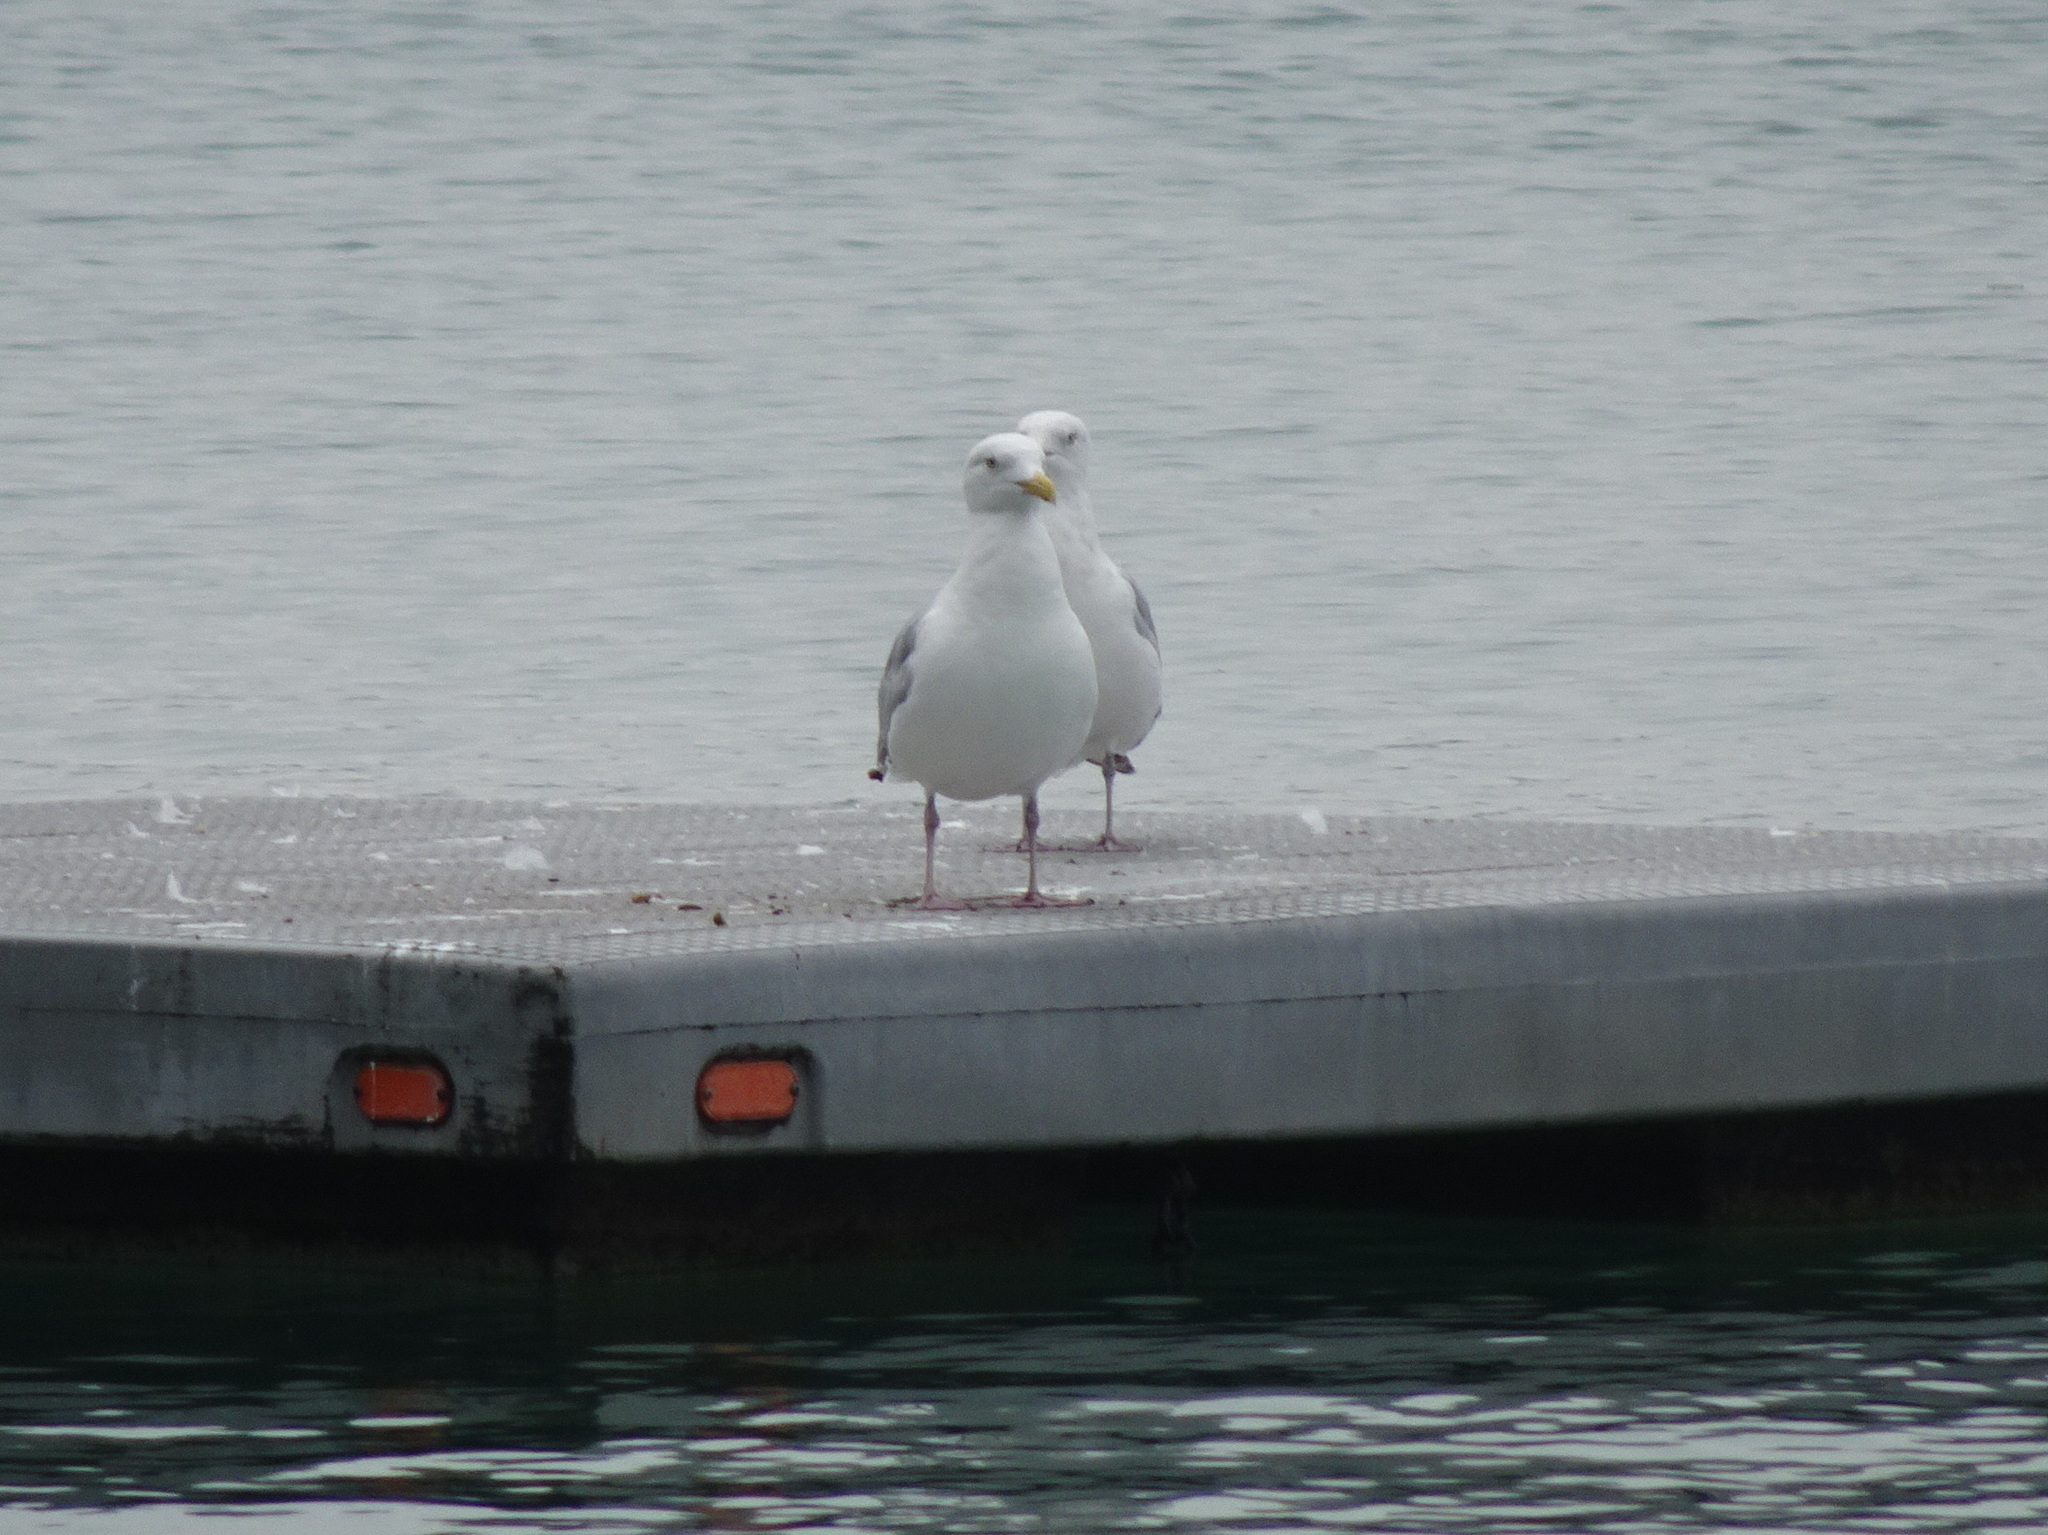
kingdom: Animalia
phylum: Chordata
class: Aves
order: Charadriiformes
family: Laridae
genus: Larus
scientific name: Larus argentatus
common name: Herring gull
